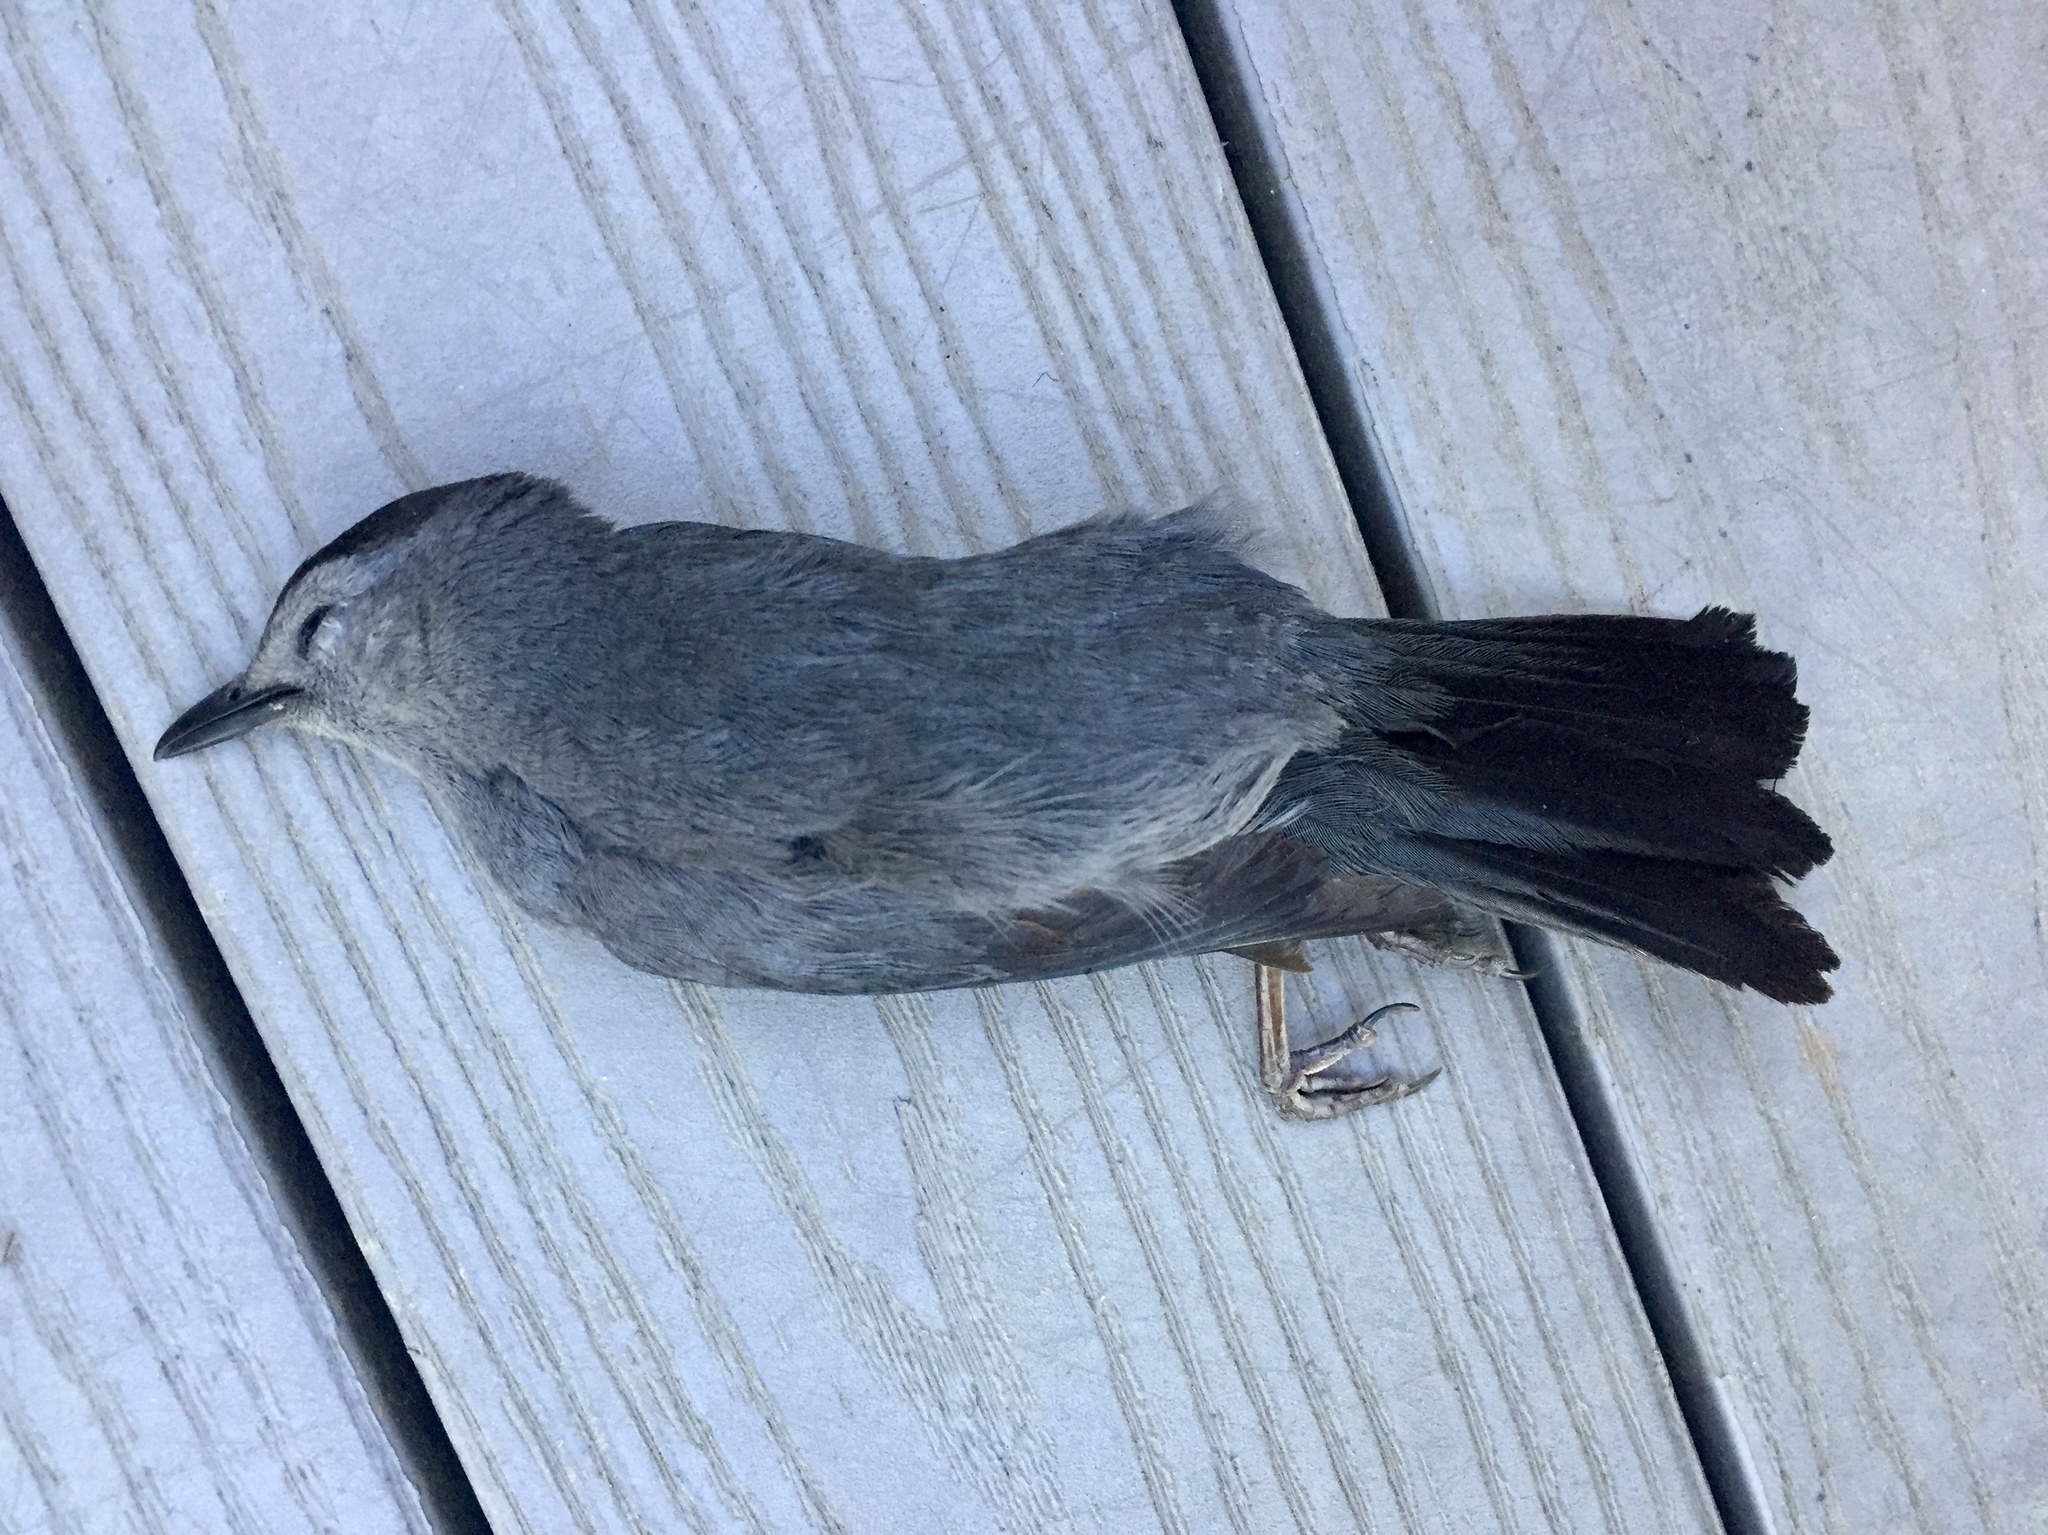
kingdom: Animalia
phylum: Chordata
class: Aves
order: Passeriformes
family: Mimidae
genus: Dumetella
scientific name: Dumetella carolinensis
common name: Gray catbird
